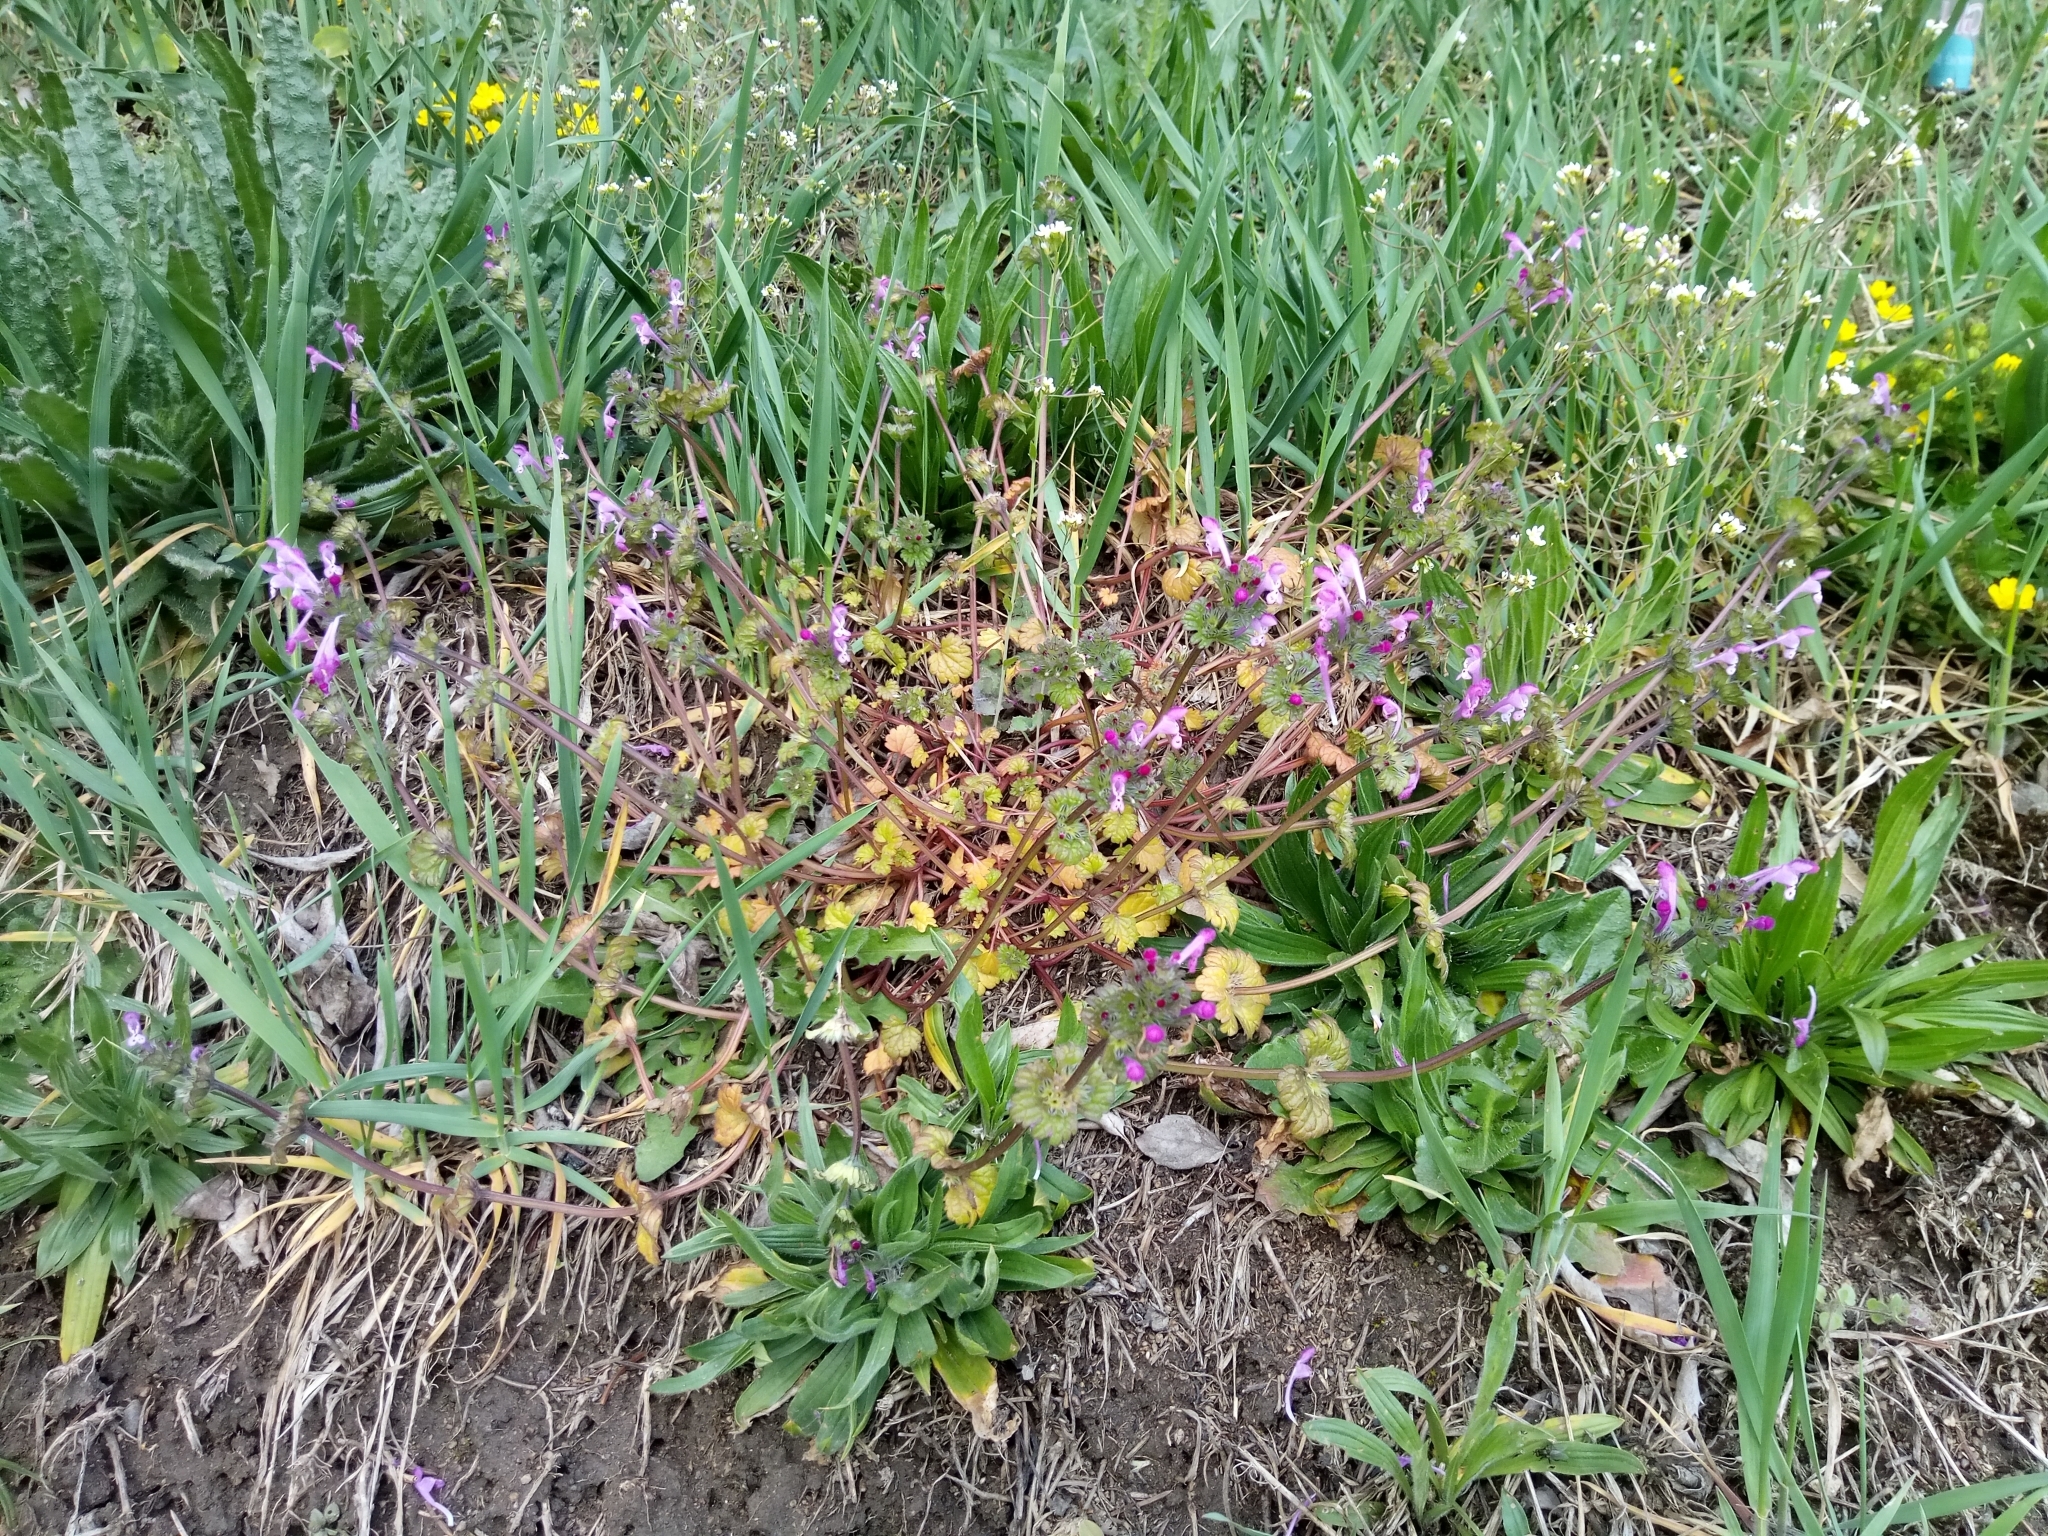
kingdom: Plantae
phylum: Tracheophyta
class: Magnoliopsida
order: Lamiales
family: Lamiaceae
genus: Lamium
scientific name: Lamium amplexicaule
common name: Henbit dead-nettle
